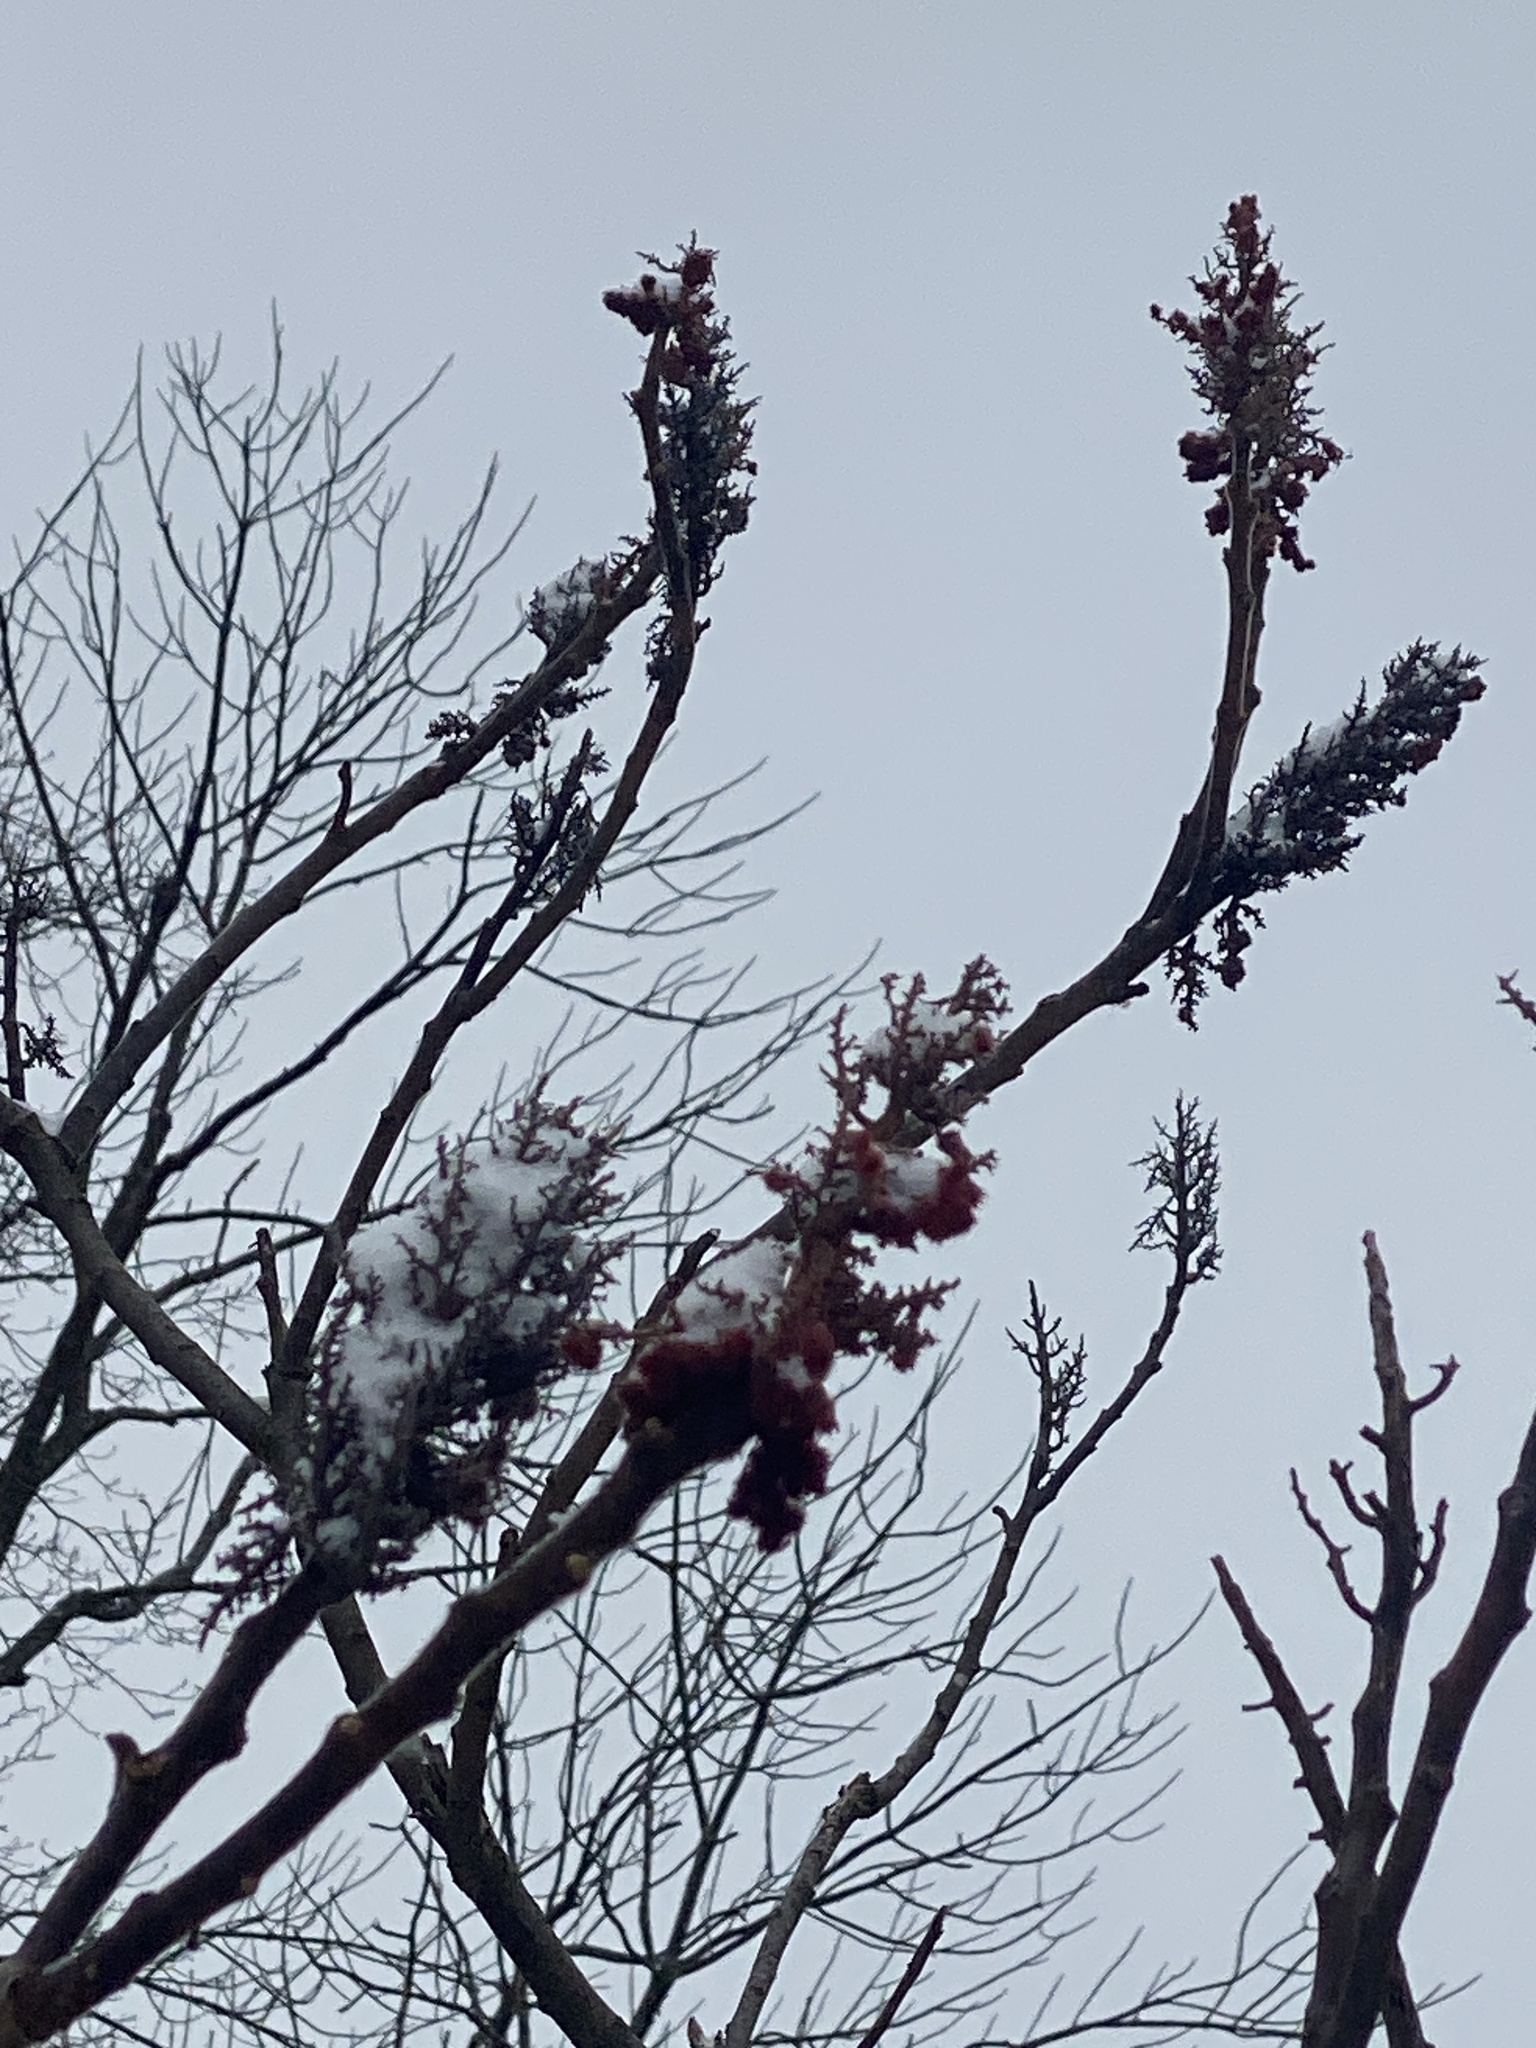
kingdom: Plantae
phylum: Tracheophyta
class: Magnoliopsida
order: Sapindales
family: Anacardiaceae
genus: Rhus
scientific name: Rhus typhina
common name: Staghorn sumac
